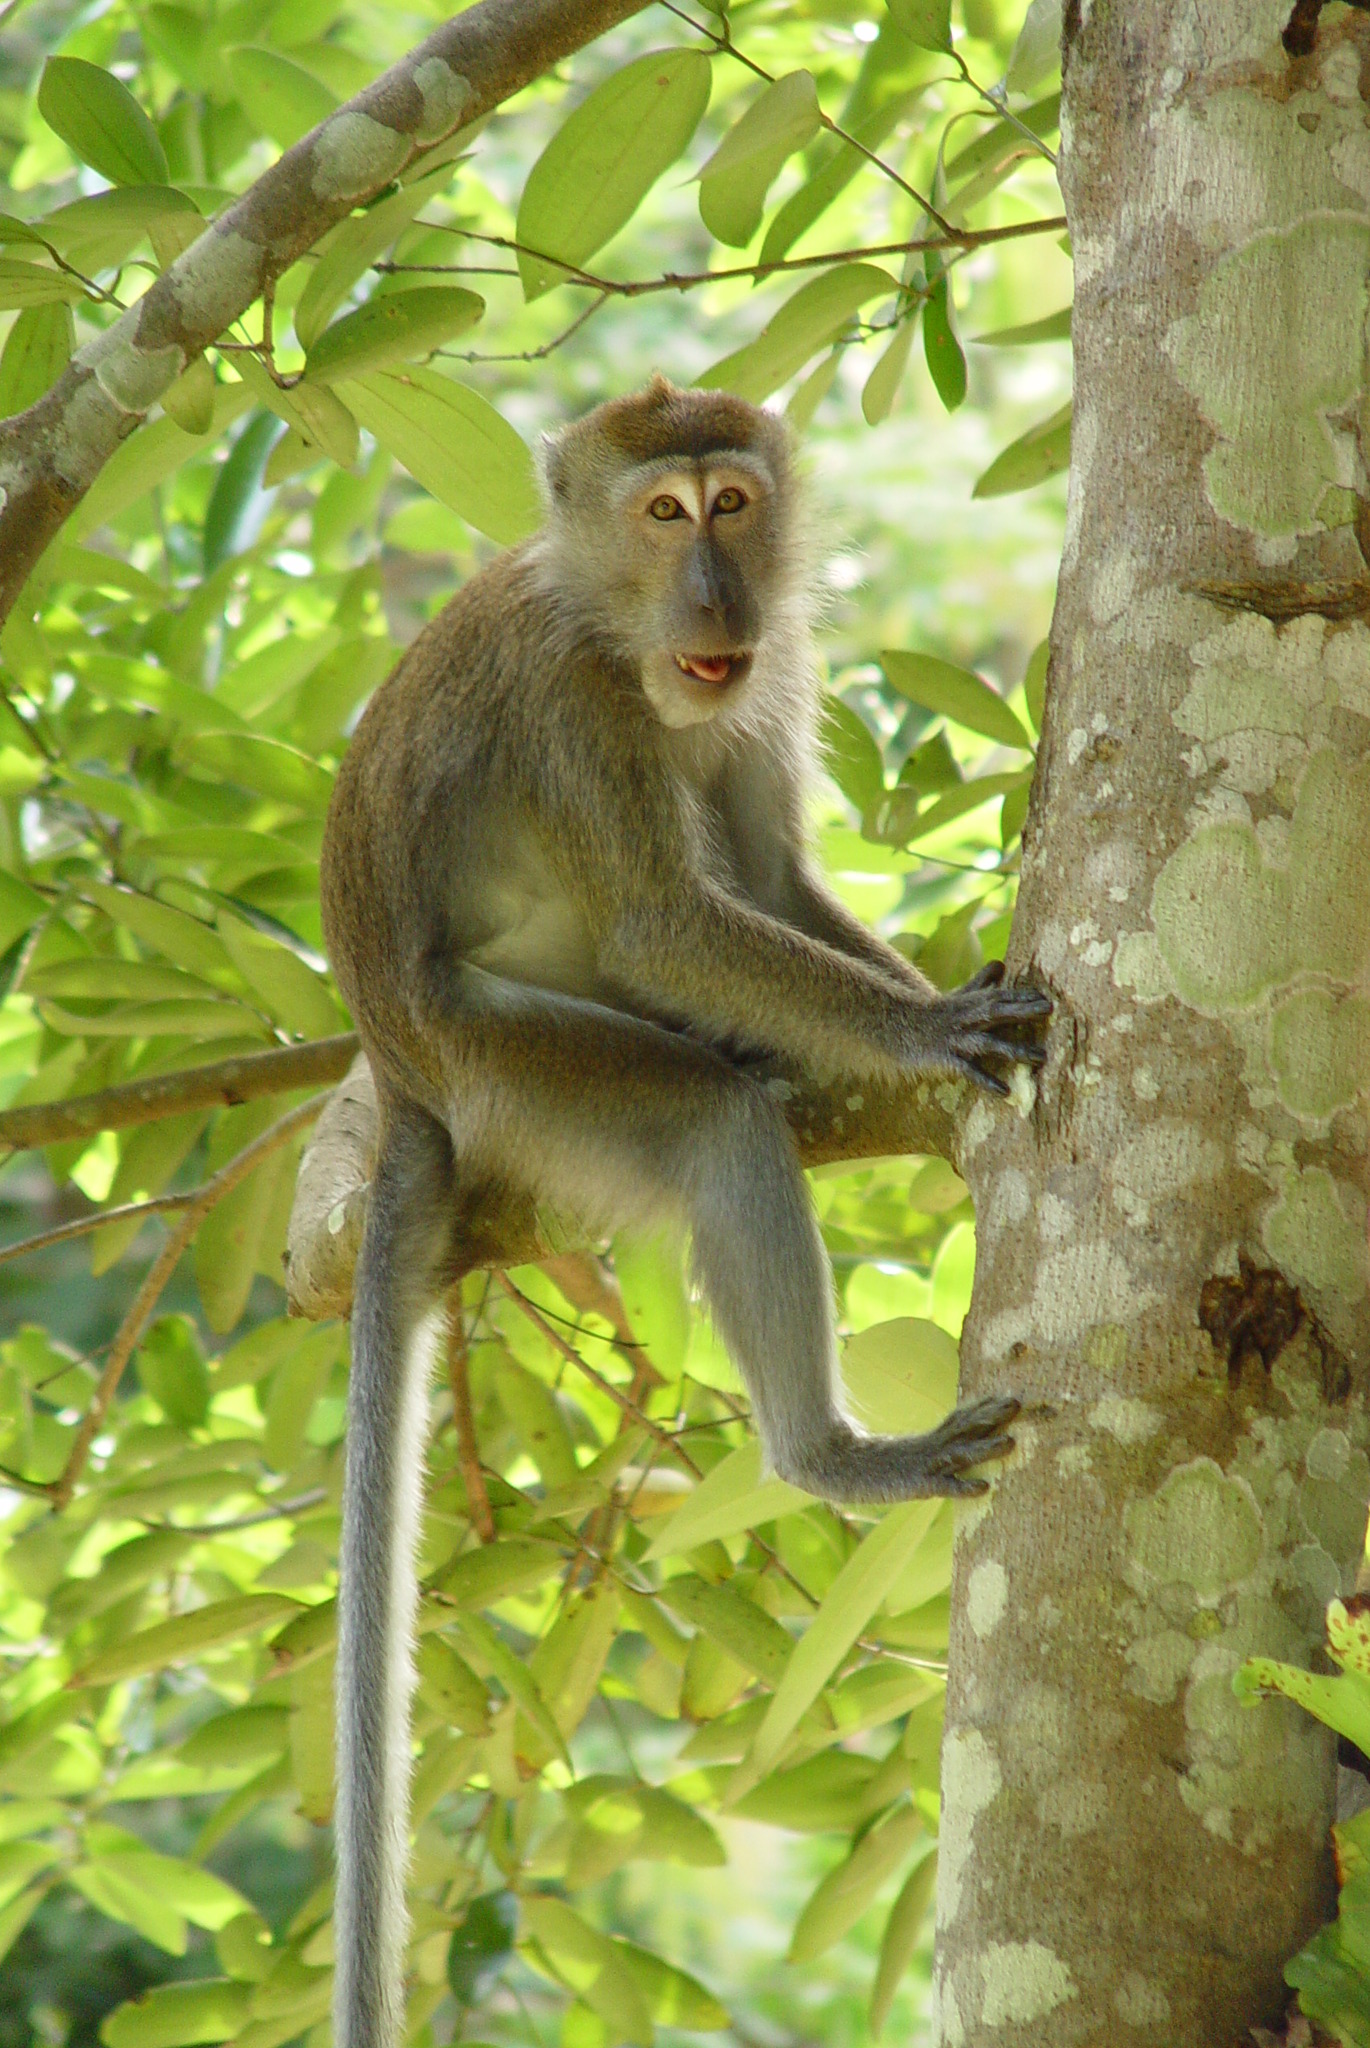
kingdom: Animalia
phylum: Chordata
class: Mammalia
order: Primates
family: Cercopithecidae
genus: Macaca
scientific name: Macaca fascicularis
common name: Crab-eating macaque
